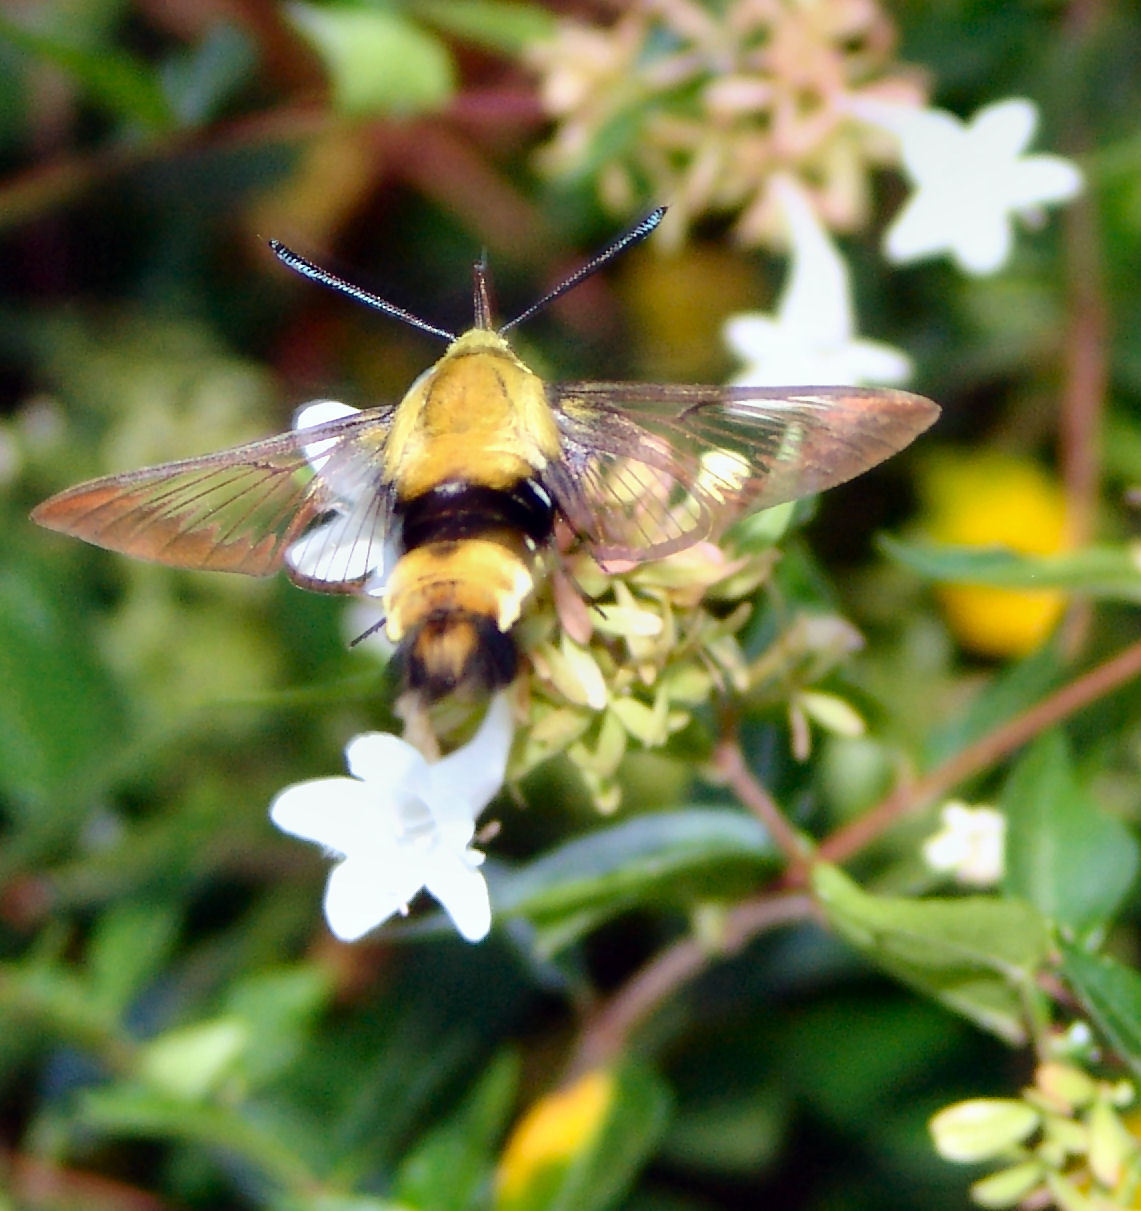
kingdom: Animalia
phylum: Arthropoda
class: Insecta
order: Lepidoptera
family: Sphingidae
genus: Hemaris
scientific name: Hemaris diffinis
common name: Bumblebee moth
